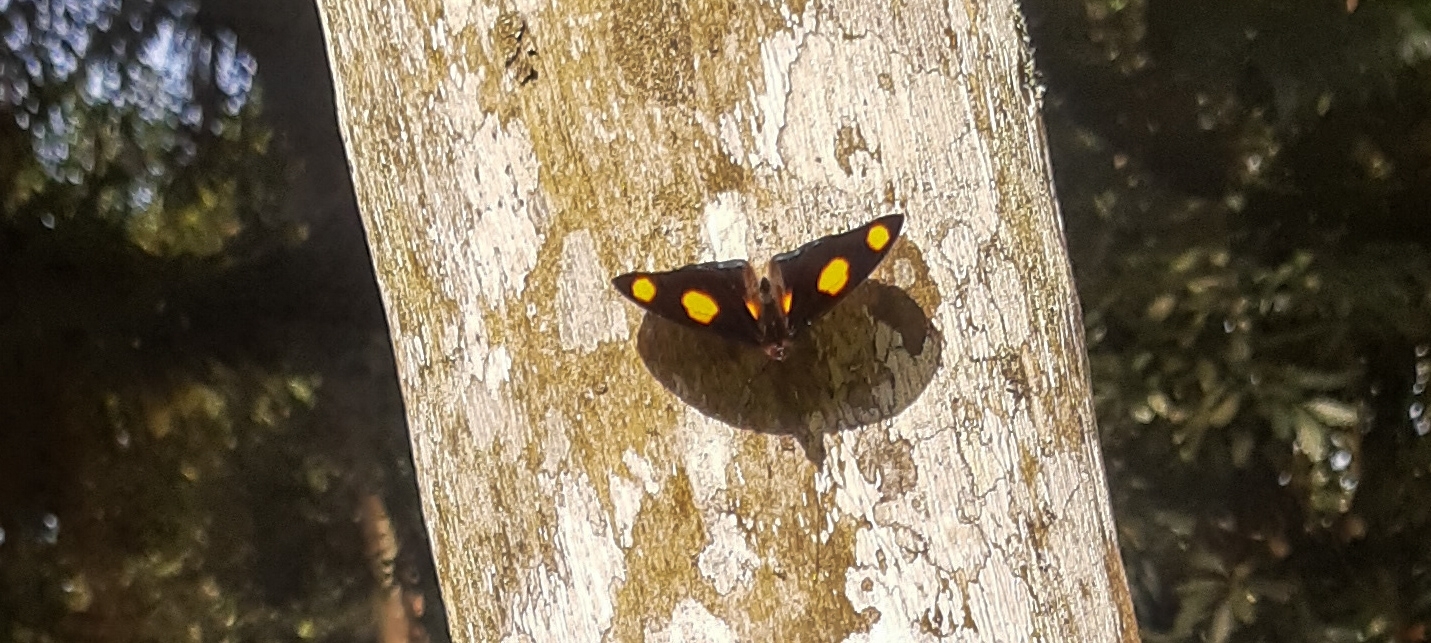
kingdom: Animalia
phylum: Arthropoda
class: Insecta
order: Lepidoptera
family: Nymphalidae
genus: Catonephele
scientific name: Catonephele numilia
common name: Blue-frosted banner
